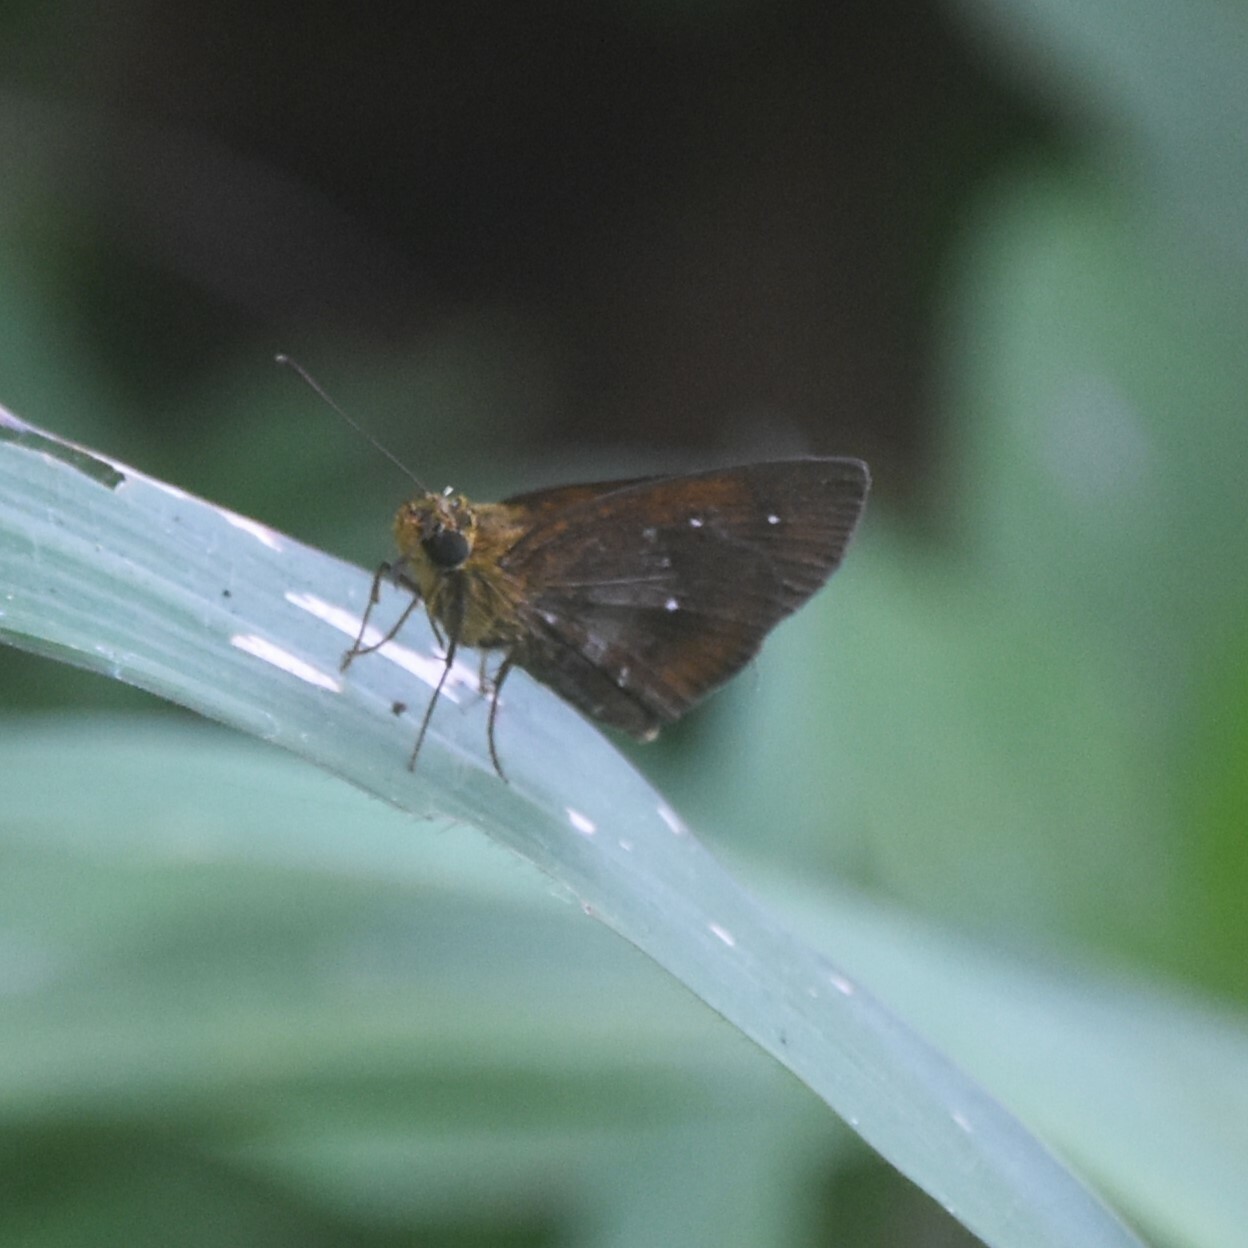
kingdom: Animalia
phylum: Arthropoda
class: Insecta
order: Lepidoptera
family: Hesperiidae
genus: Iambrix
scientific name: Iambrix salsala
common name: Chestnut bob
